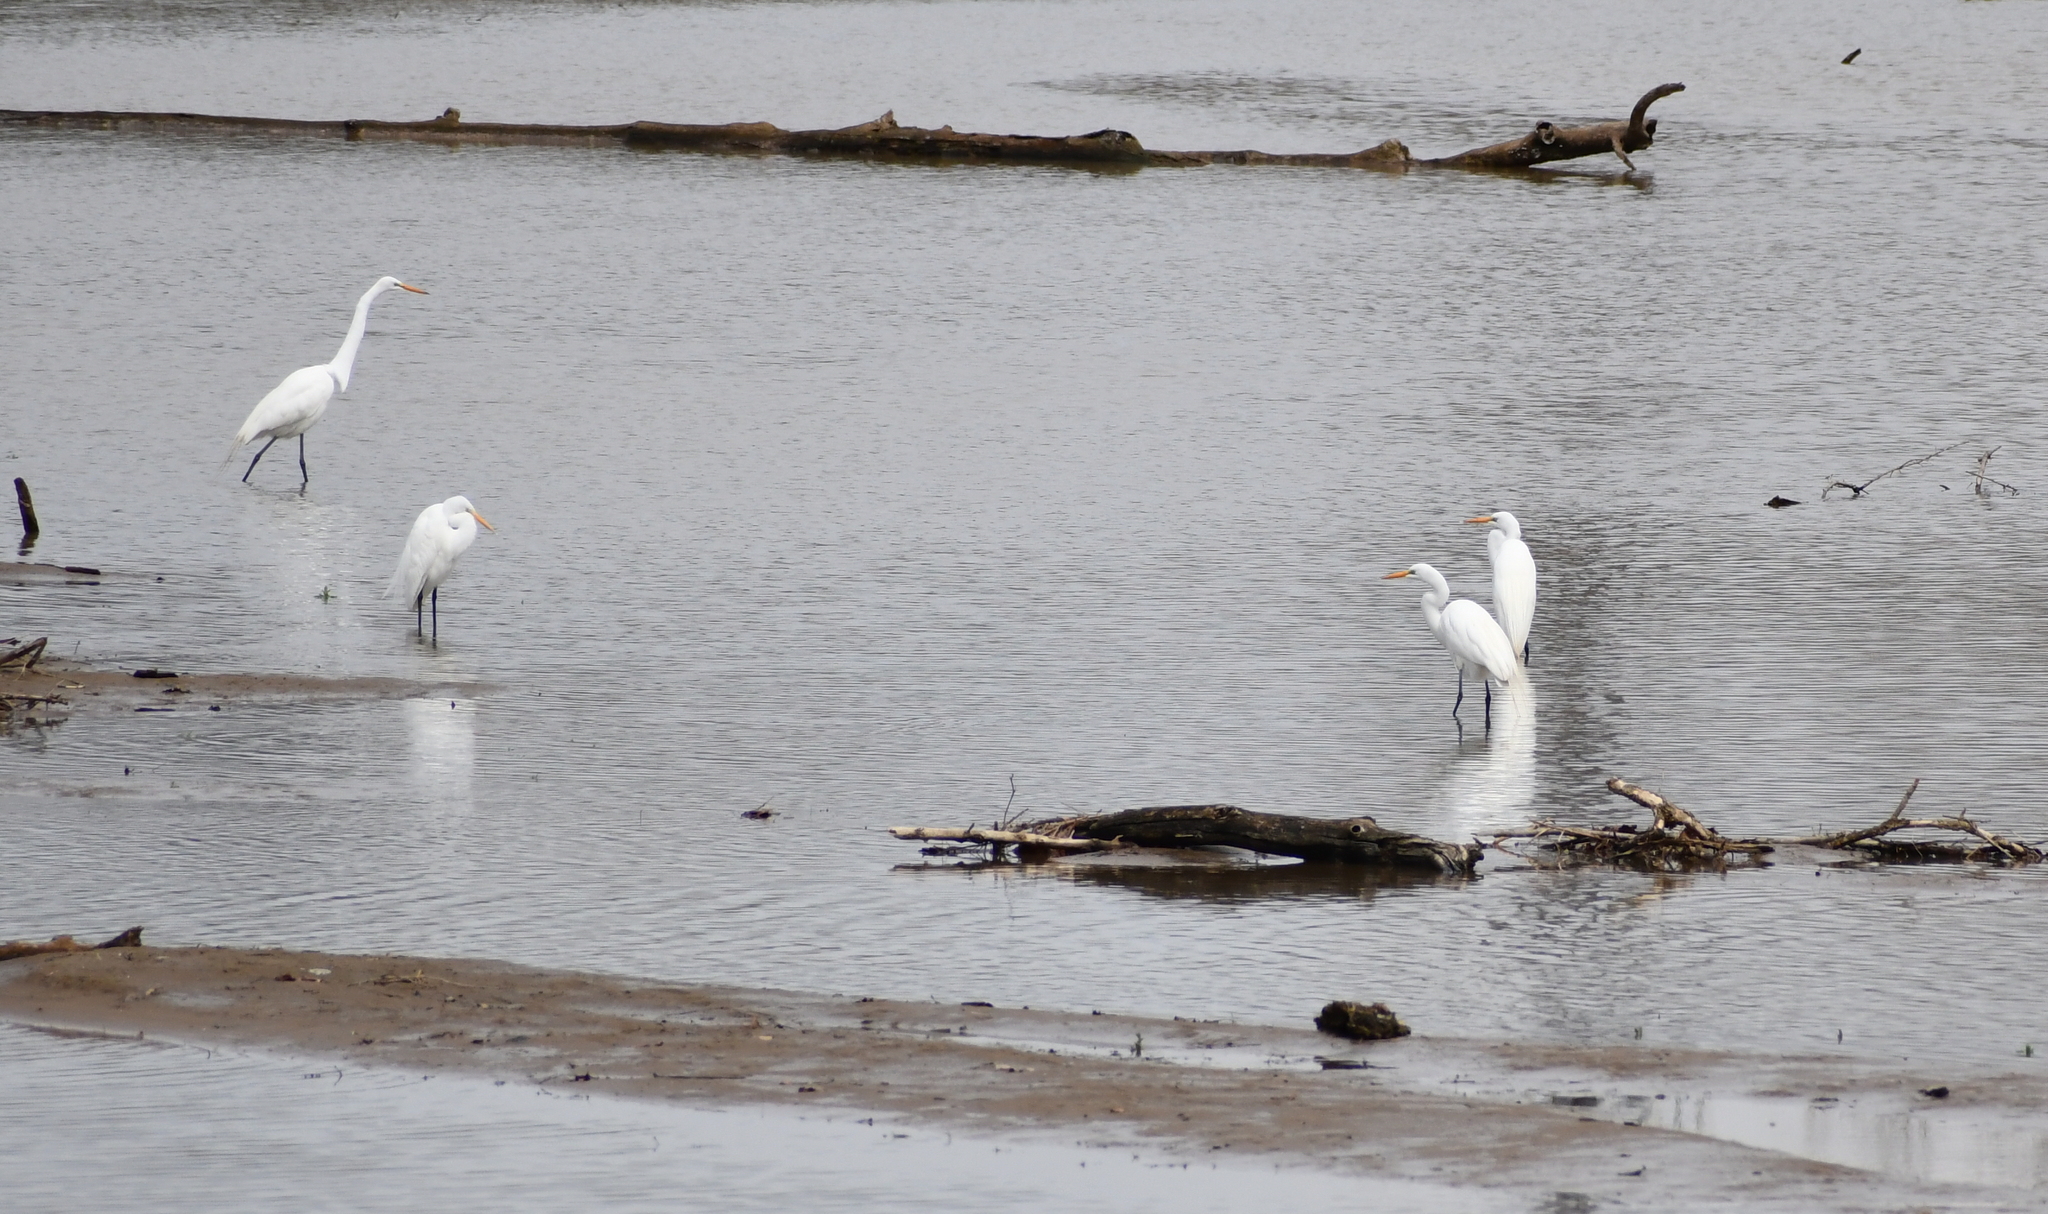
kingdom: Animalia
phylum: Chordata
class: Aves
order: Pelecaniformes
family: Ardeidae
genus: Ardea
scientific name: Ardea alba
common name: Great egret
